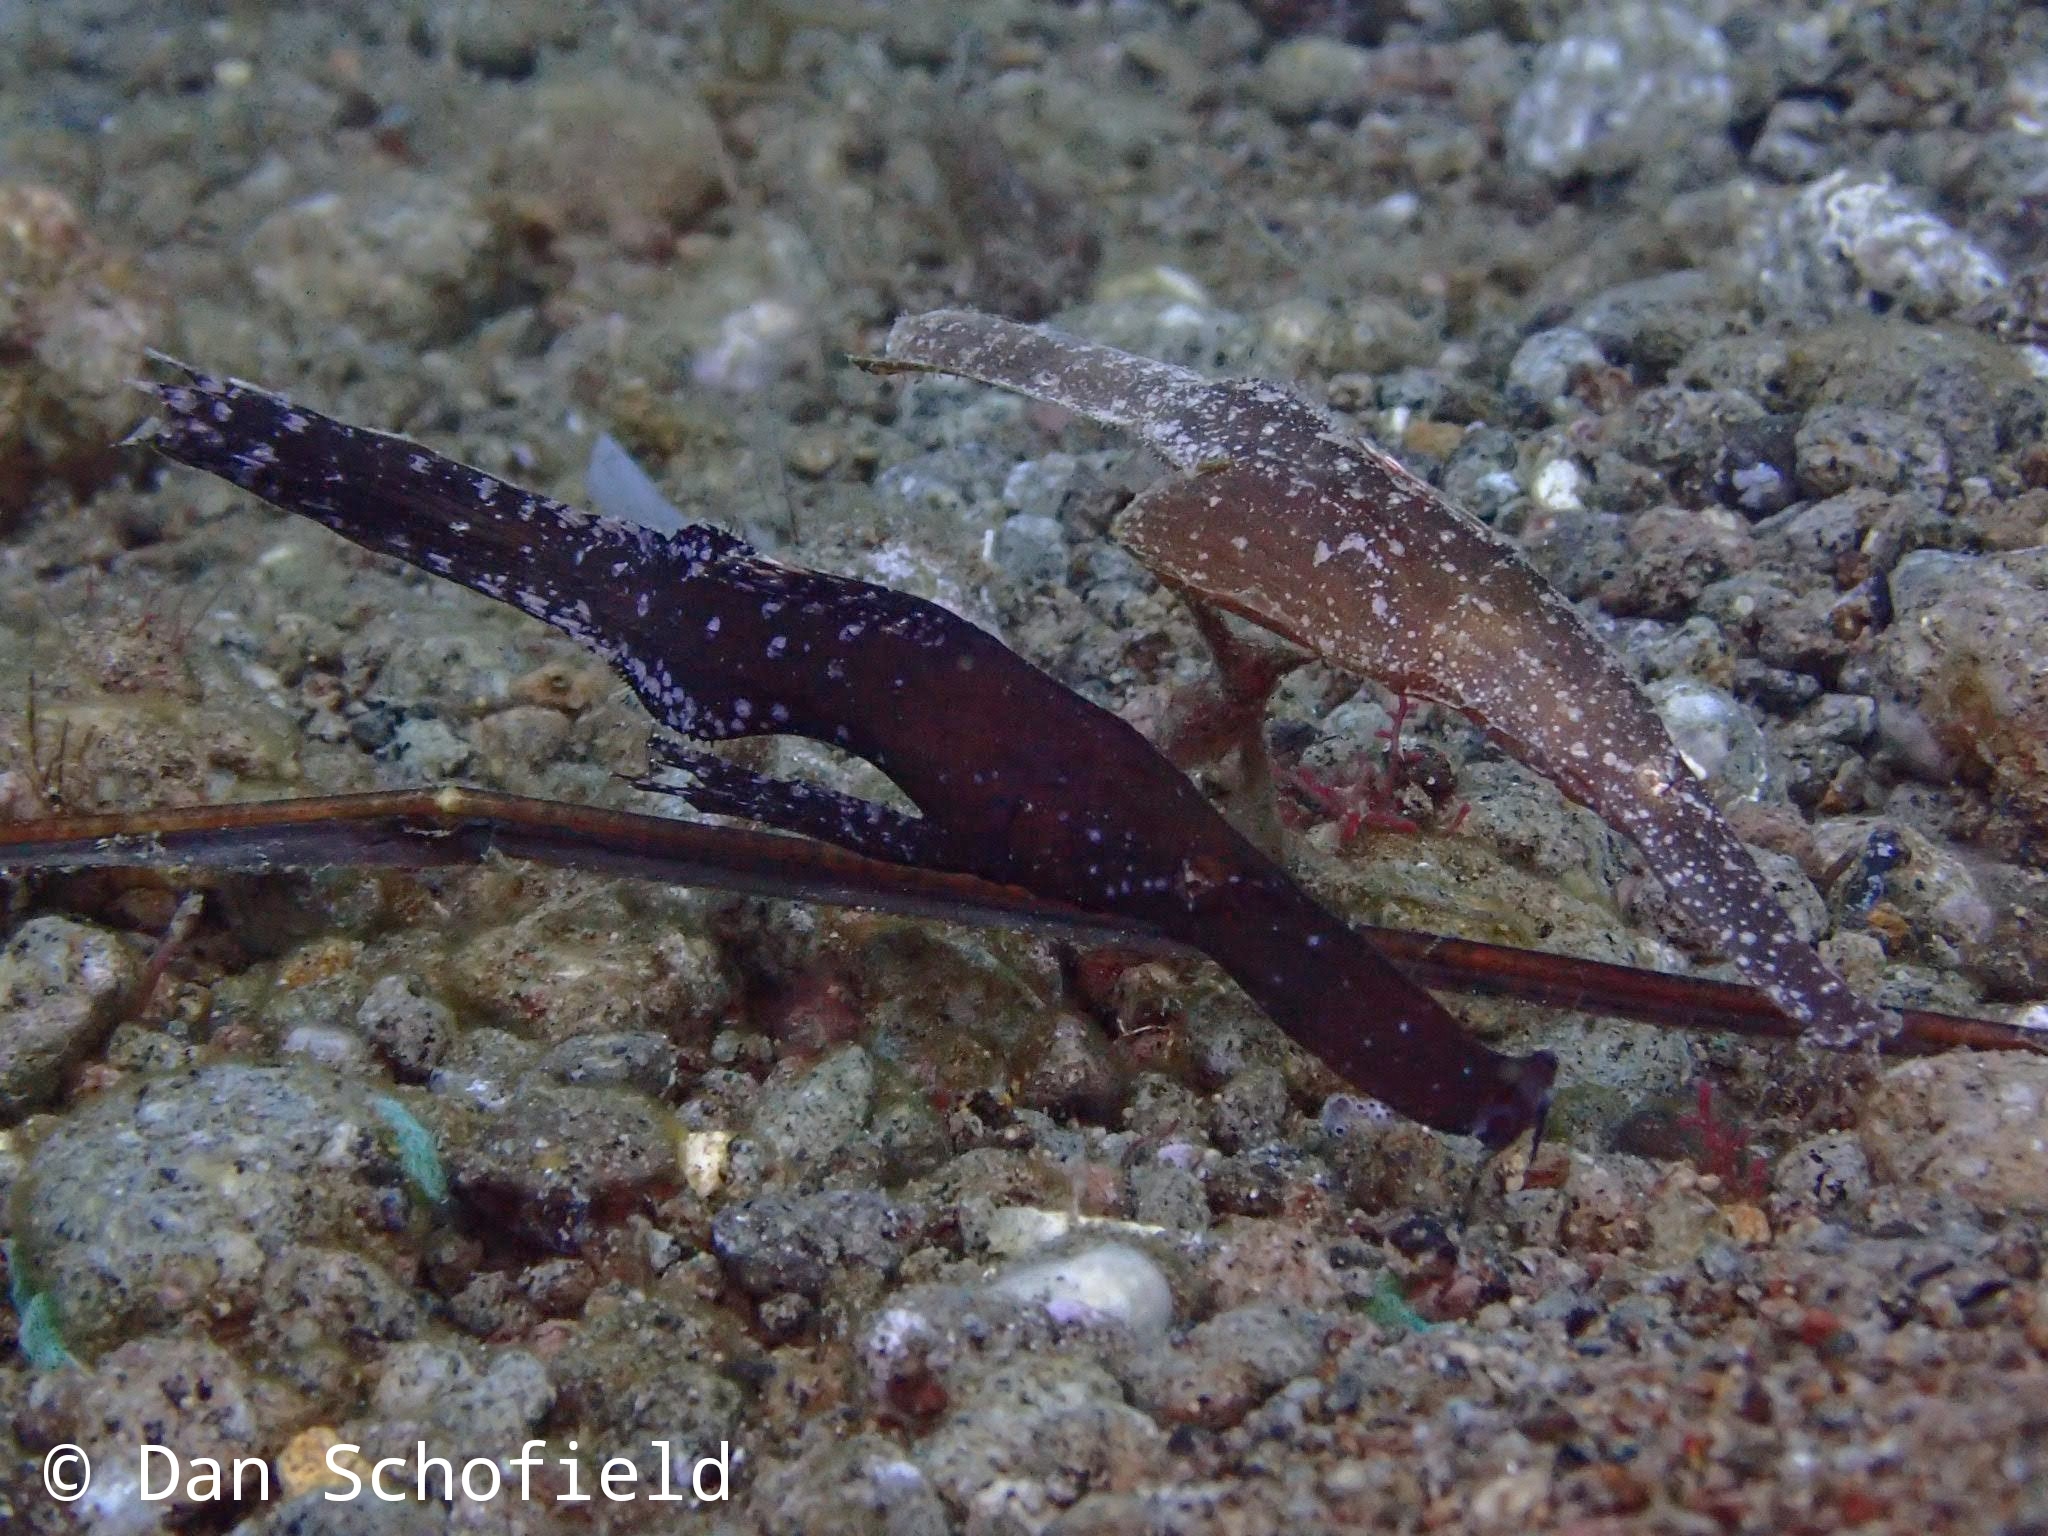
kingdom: Animalia
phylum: Chordata
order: Syngnathiformes
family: Solenostomidae
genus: Solenostomus
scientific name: Solenostomus cyanopterus
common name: Blue-finned ghost pipefish
